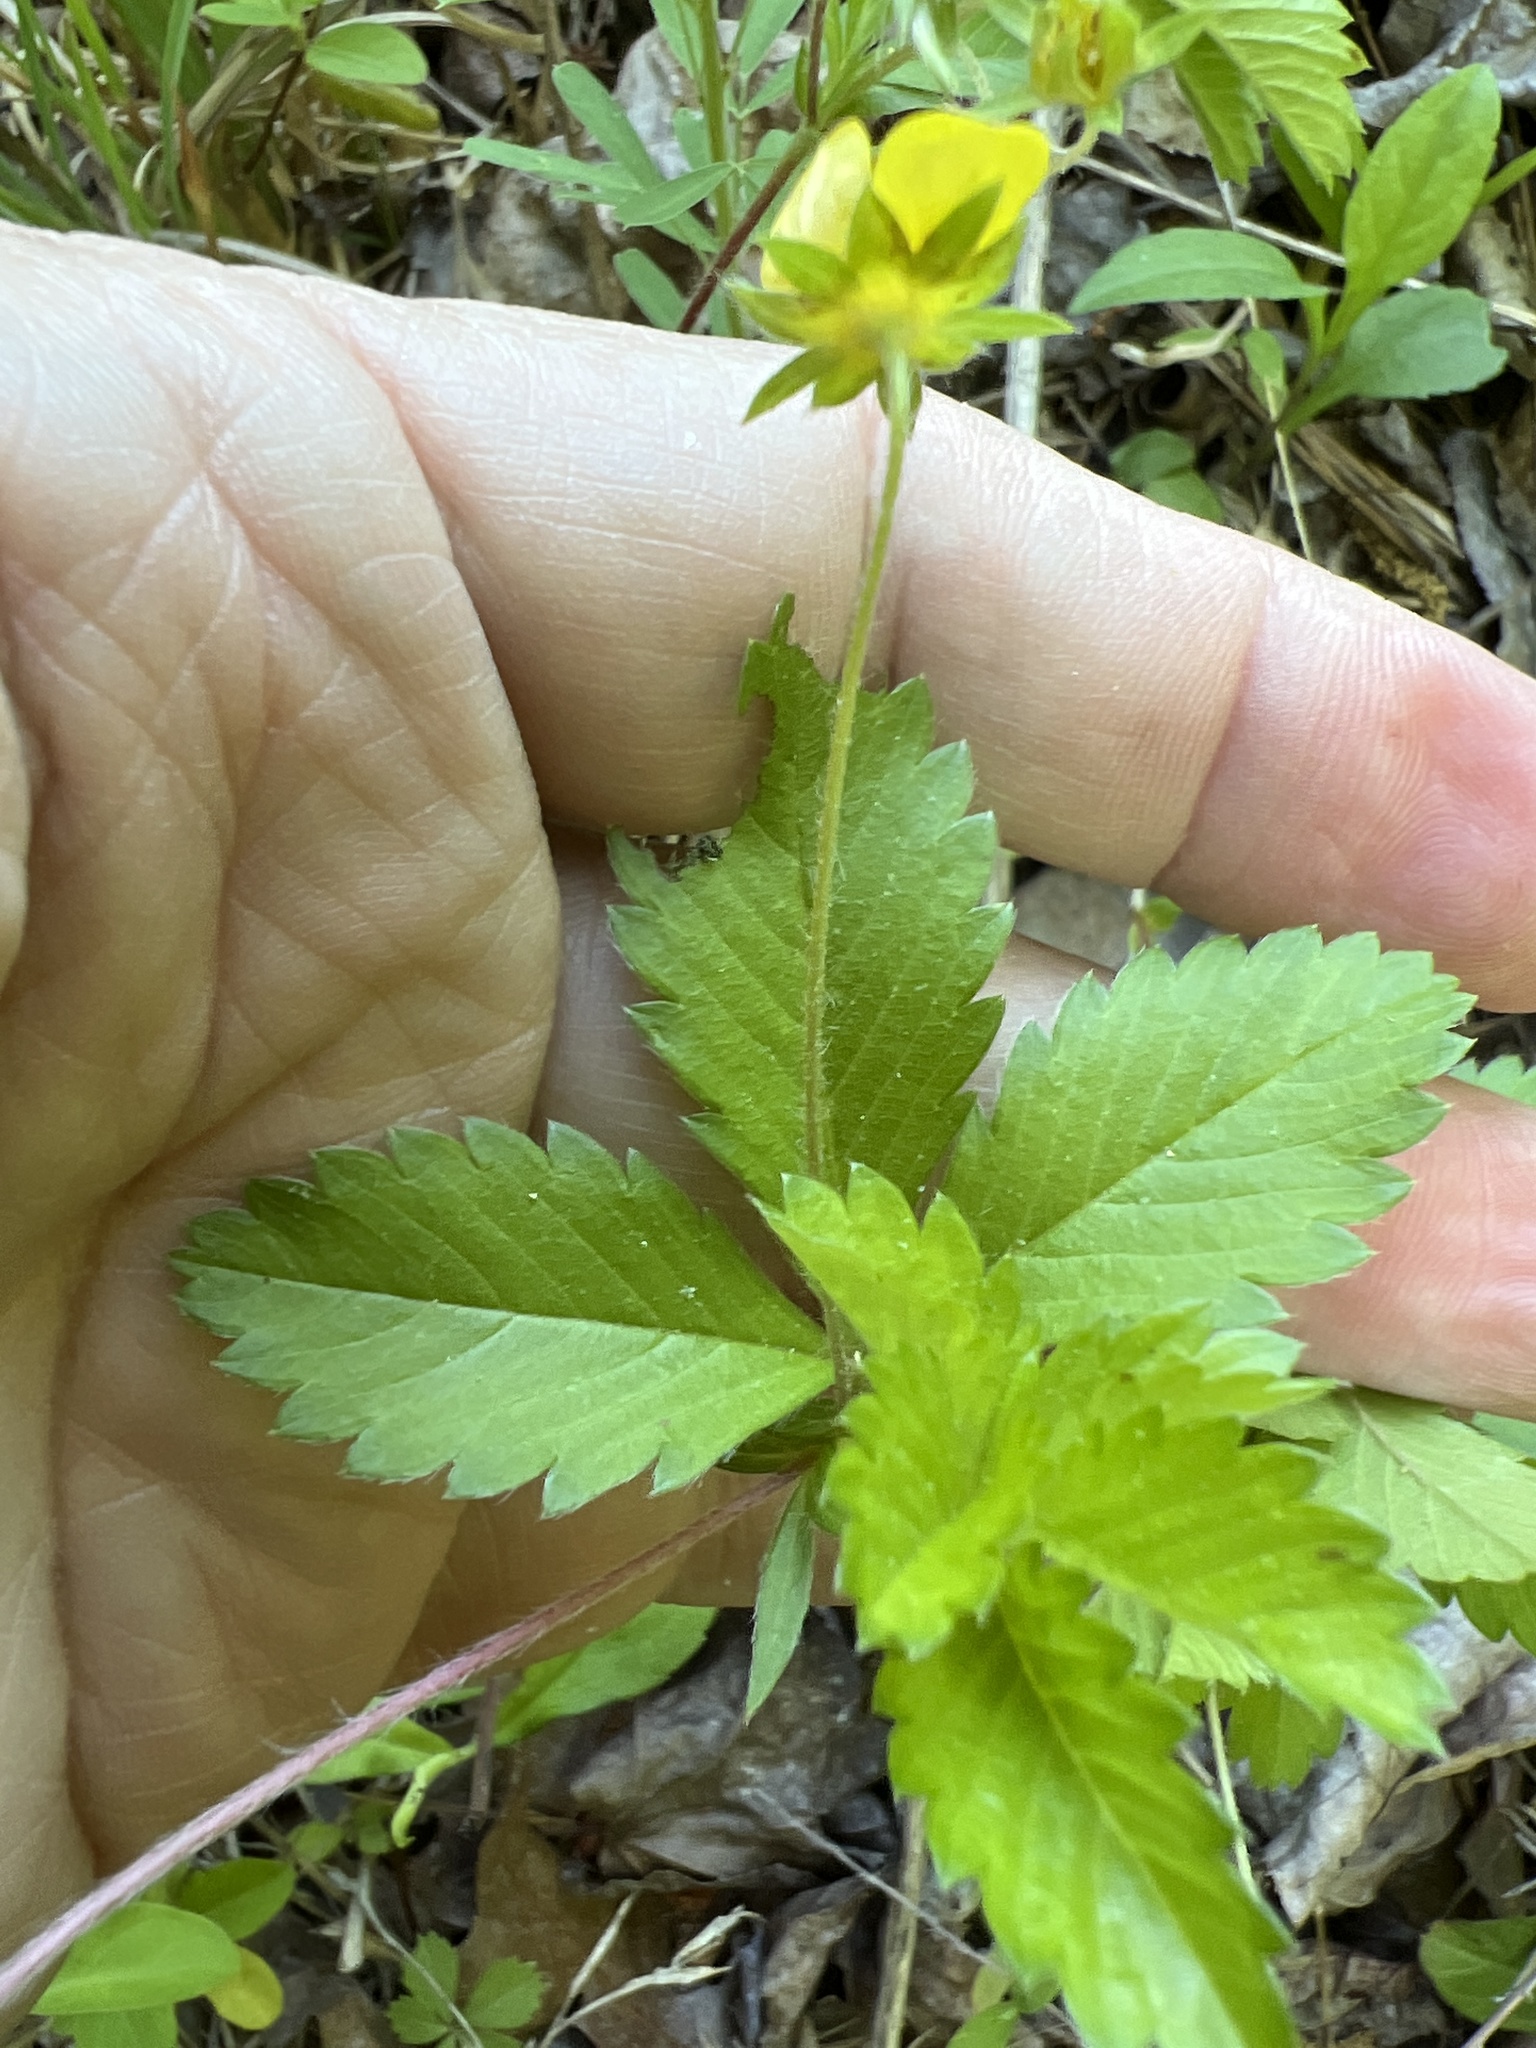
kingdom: Plantae
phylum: Tracheophyta
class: Magnoliopsida
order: Rosales
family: Rosaceae
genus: Potentilla
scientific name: Potentilla simplex
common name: Old field cinquefoil
